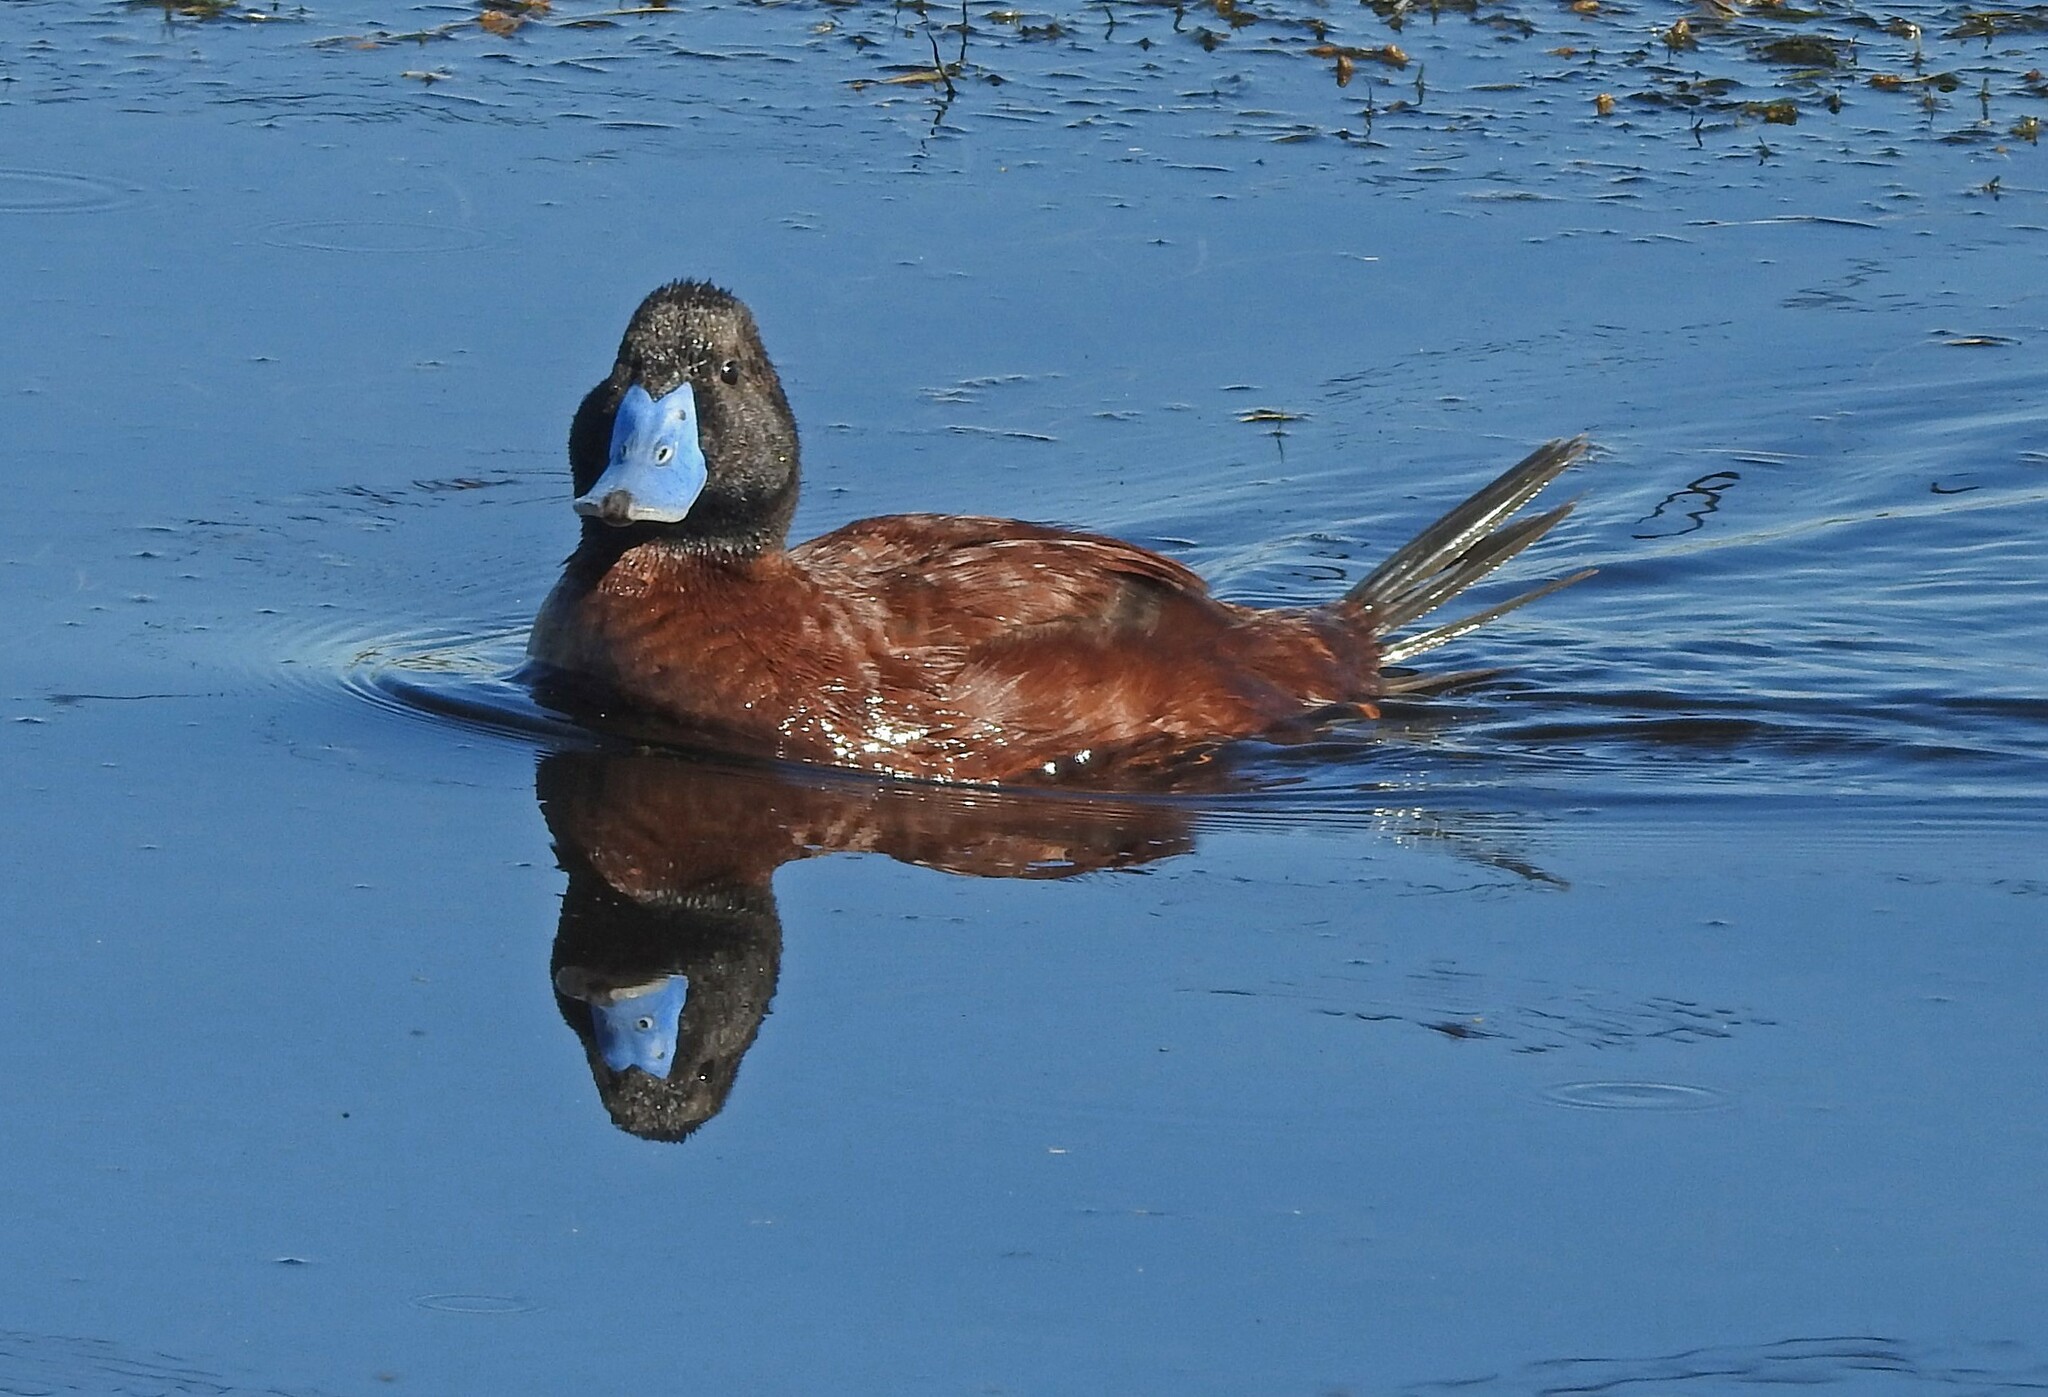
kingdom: Animalia
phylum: Chordata
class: Aves
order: Anseriformes
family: Anatidae
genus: Oxyura
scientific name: Oxyura vittata
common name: Lake duck
